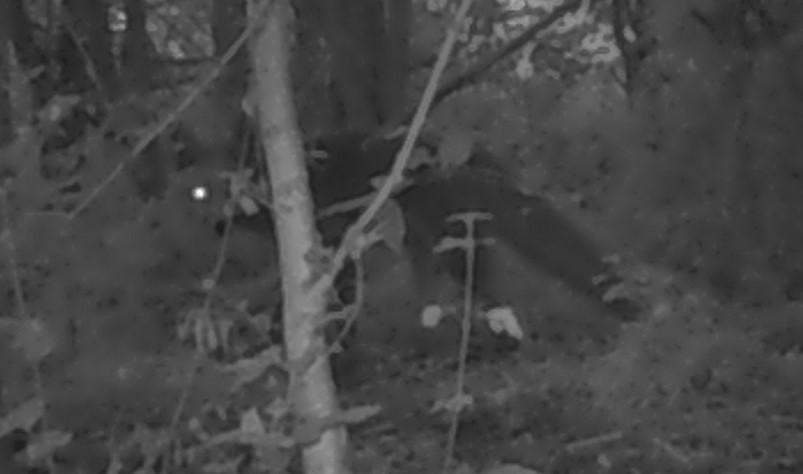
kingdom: Animalia
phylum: Chordata
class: Mammalia
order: Carnivora
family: Canidae
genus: Vulpes
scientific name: Vulpes vulpes
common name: Red fox
